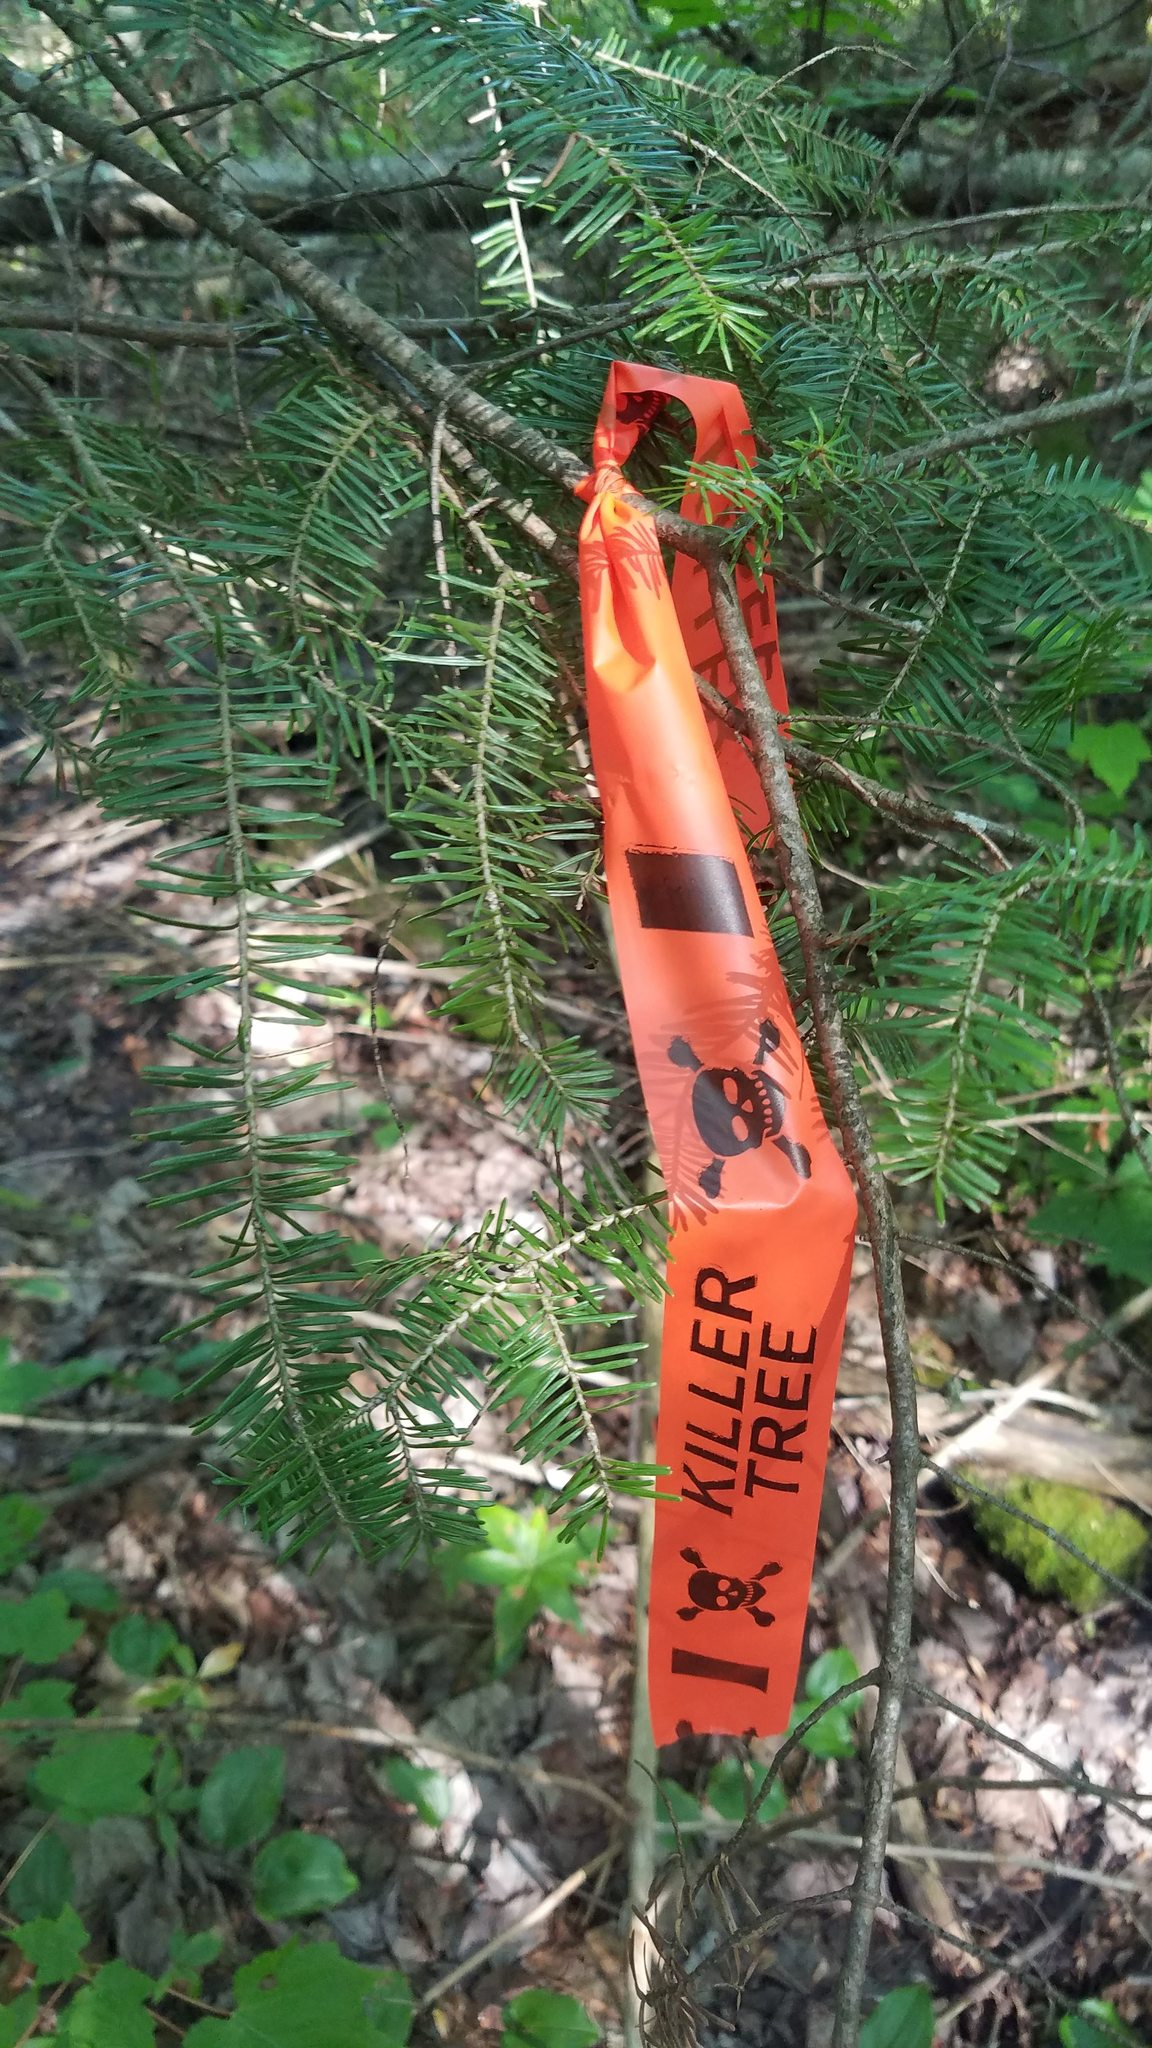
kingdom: Plantae
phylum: Tracheophyta
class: Pinopsida
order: Pinales
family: Pinaceae
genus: Abies
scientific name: Abies balsamea
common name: Balsam fir
